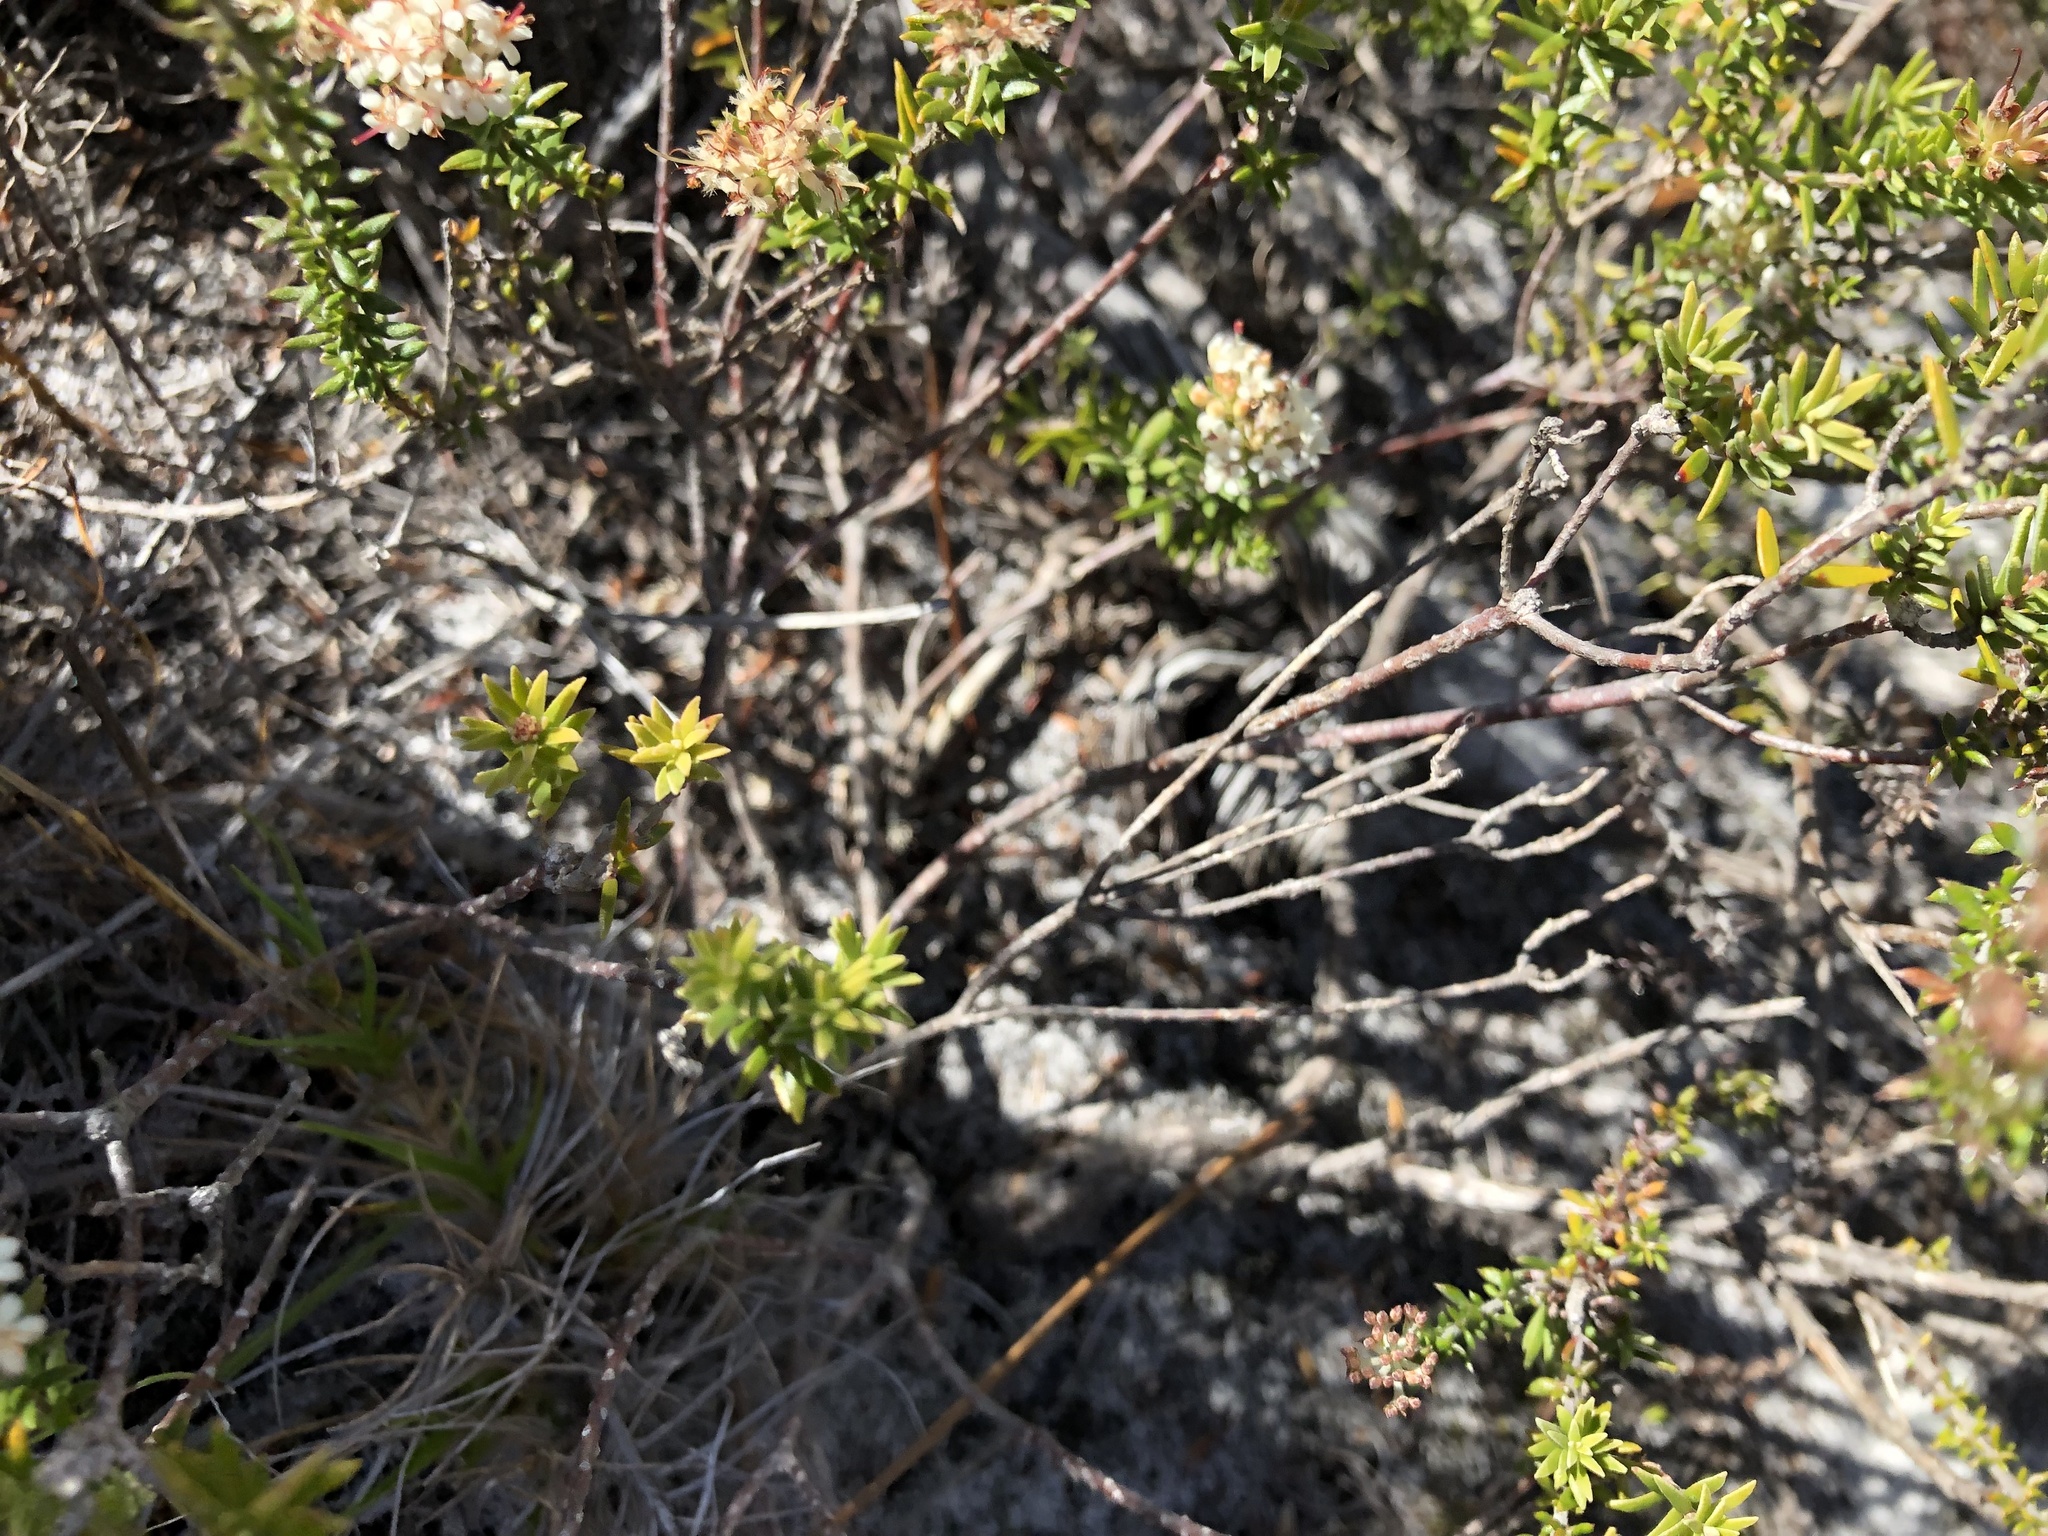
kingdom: Plantae
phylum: Tracheophyta
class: Magnoliopsida
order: Sapindales
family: Rutaceae
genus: Macrostylis
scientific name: Macrostylis villosa
